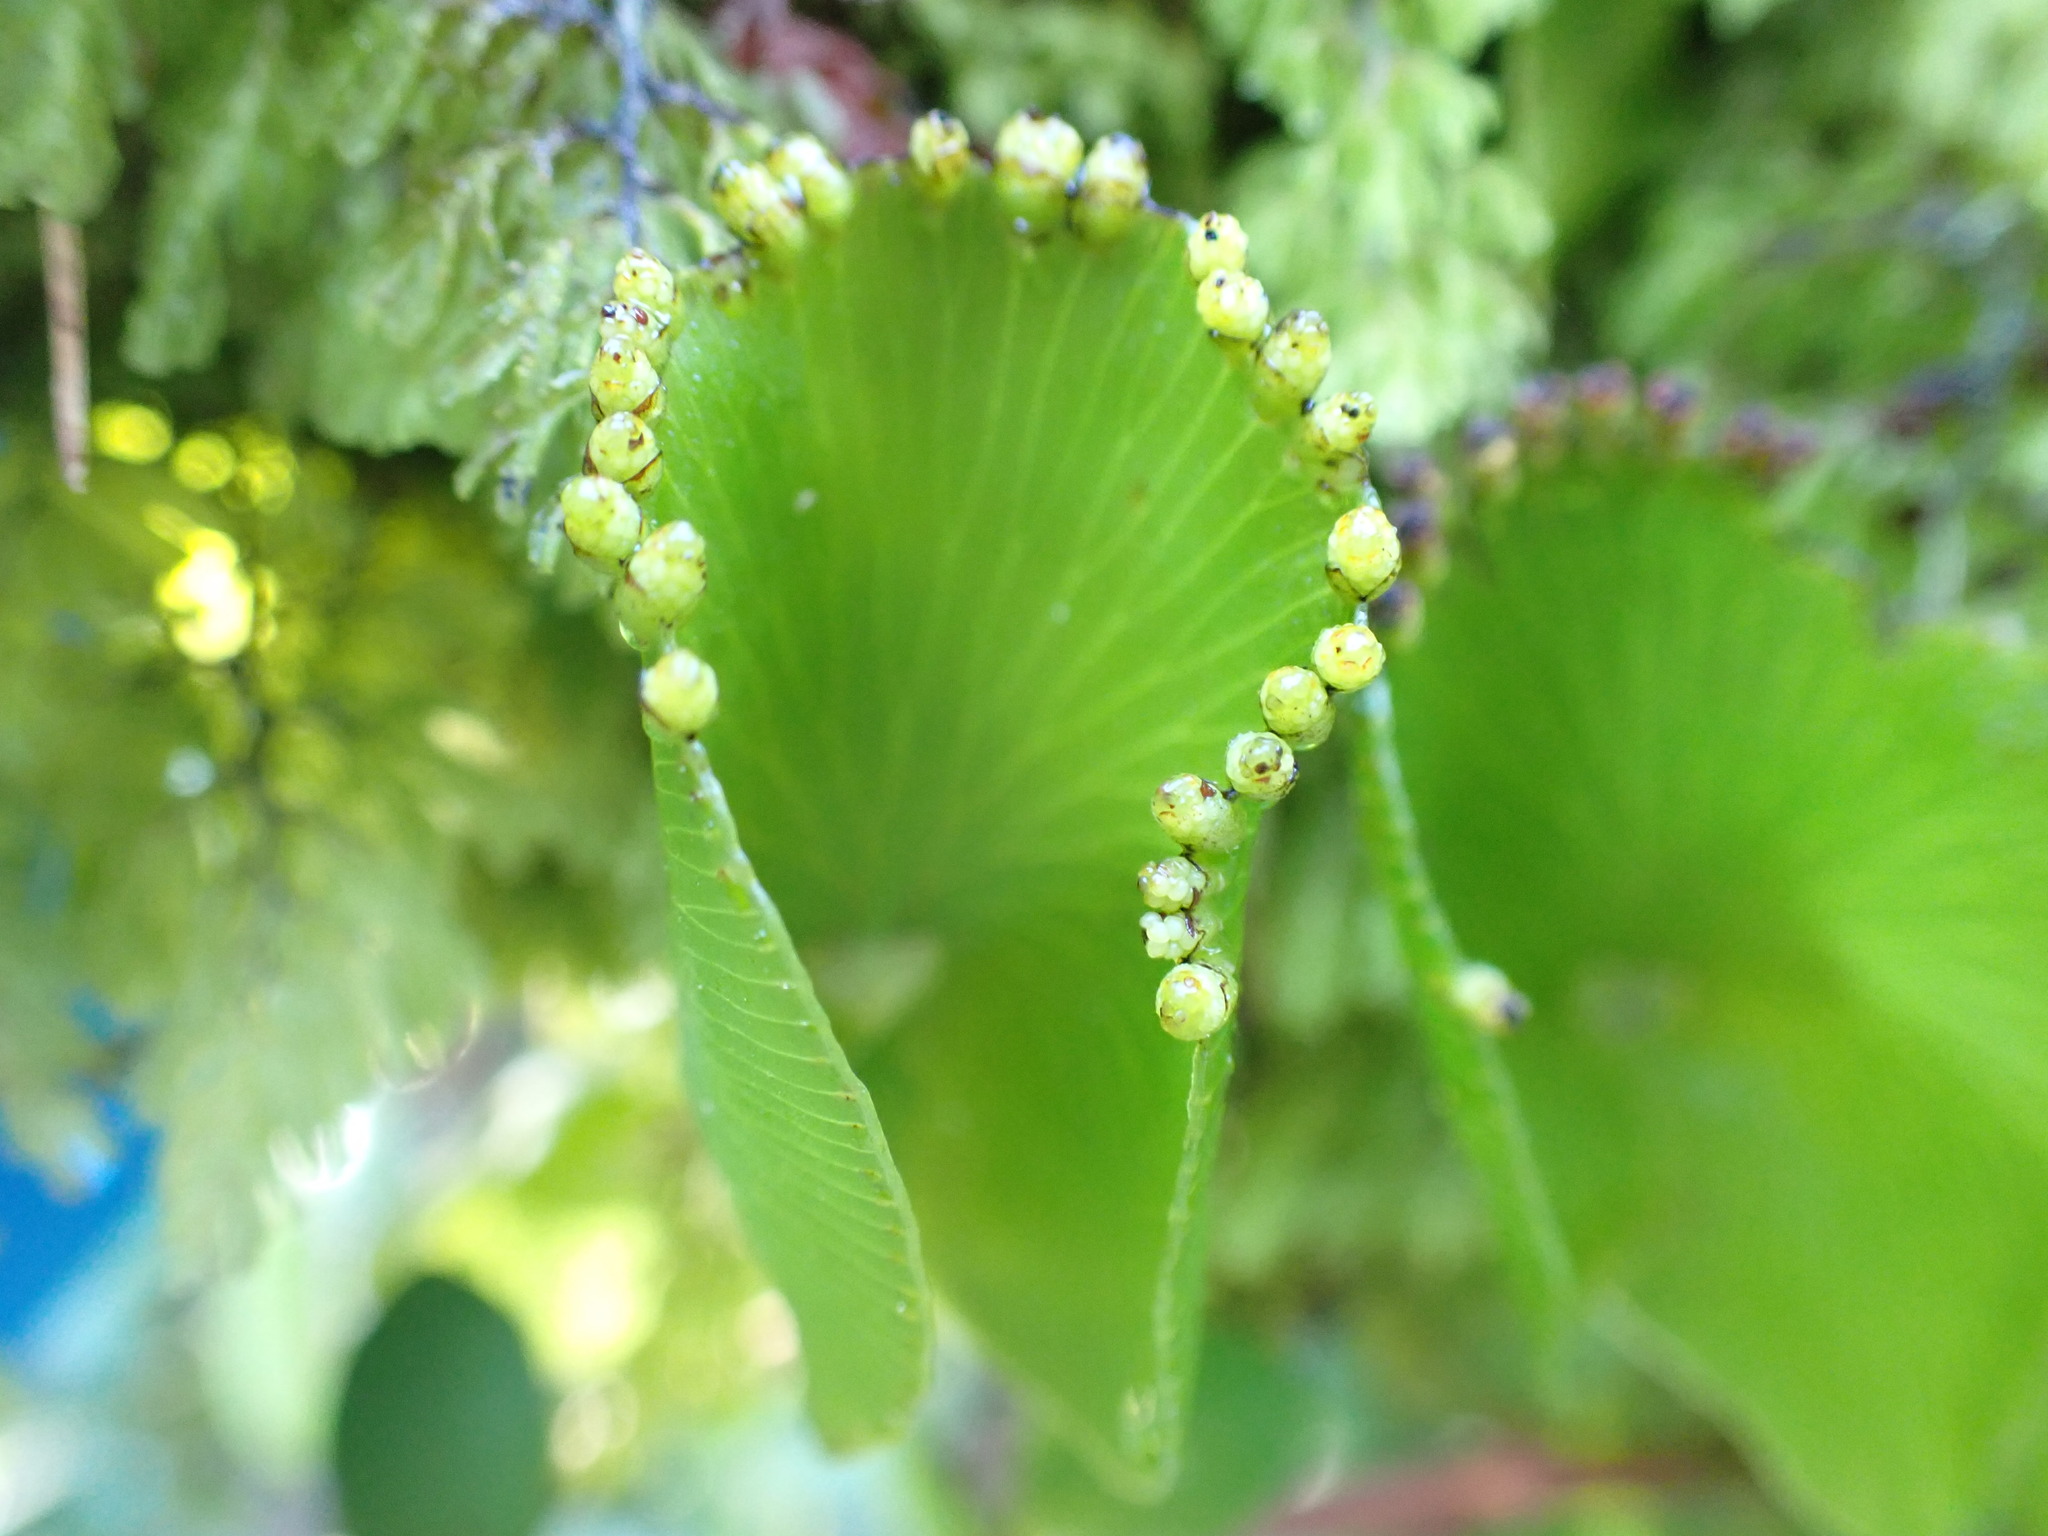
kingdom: Plantae
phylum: Tracheophyta
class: Polypodiopsida
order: Hymenophyllales
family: Hymenophyllaceae
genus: Hymenophyllum
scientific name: Hymenophyllum nephrophyllum
